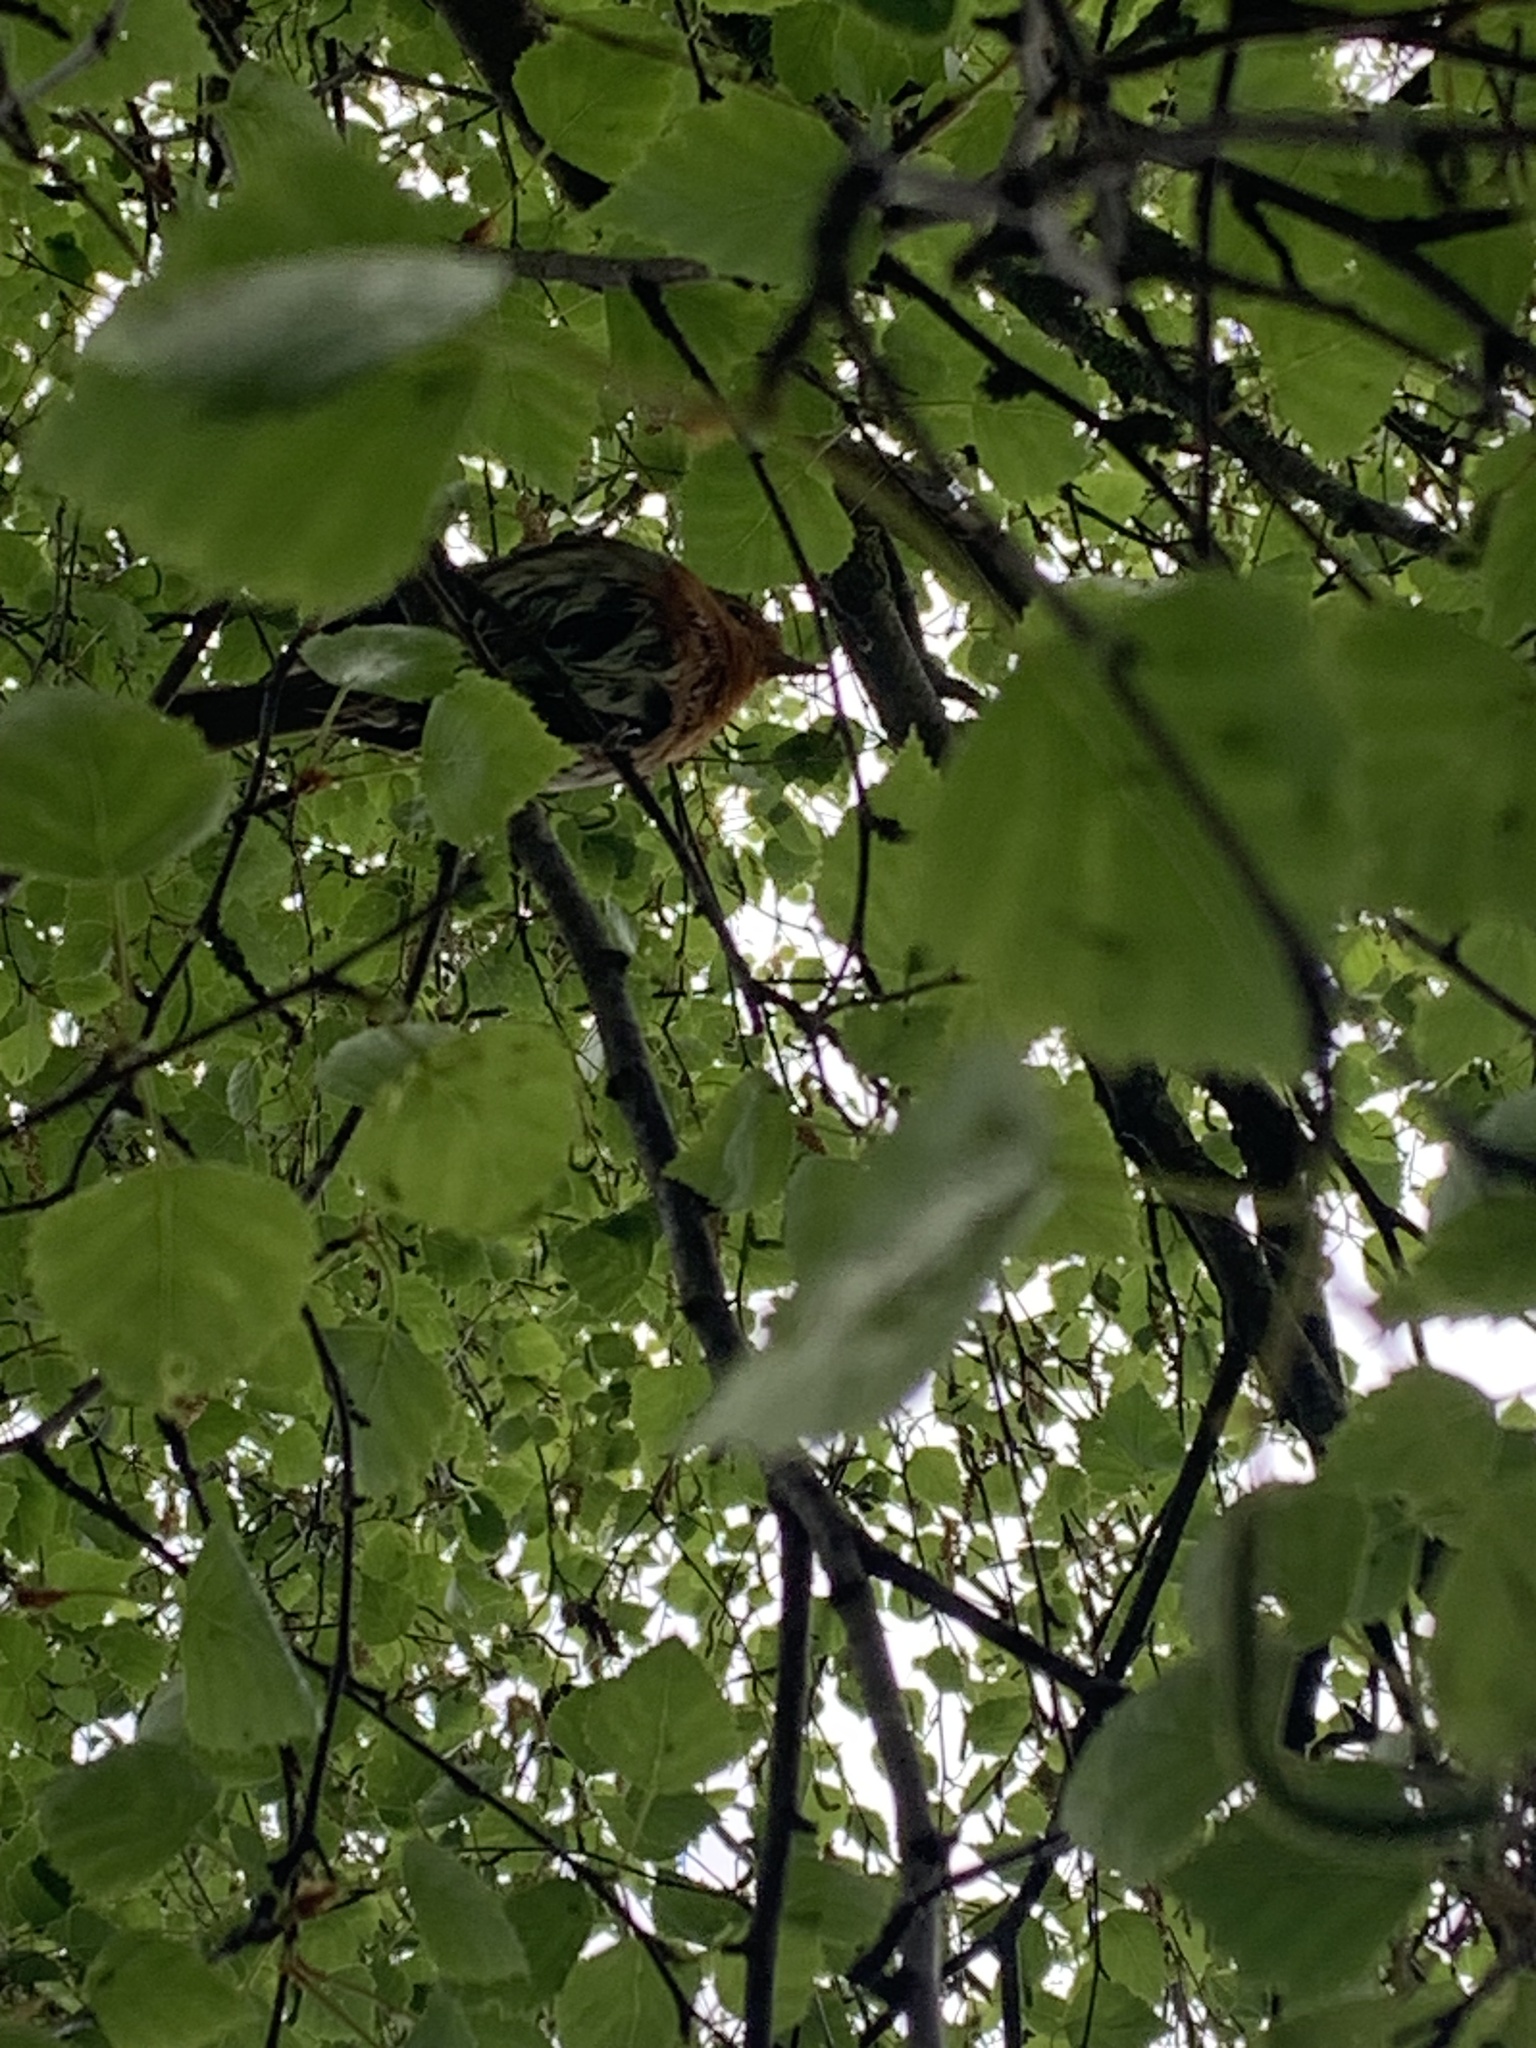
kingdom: Animalia
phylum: Chordata
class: Aves
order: Passeriformes
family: Muscicapidae
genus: Erithacus
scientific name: Erithacus rubecula
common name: European robin
